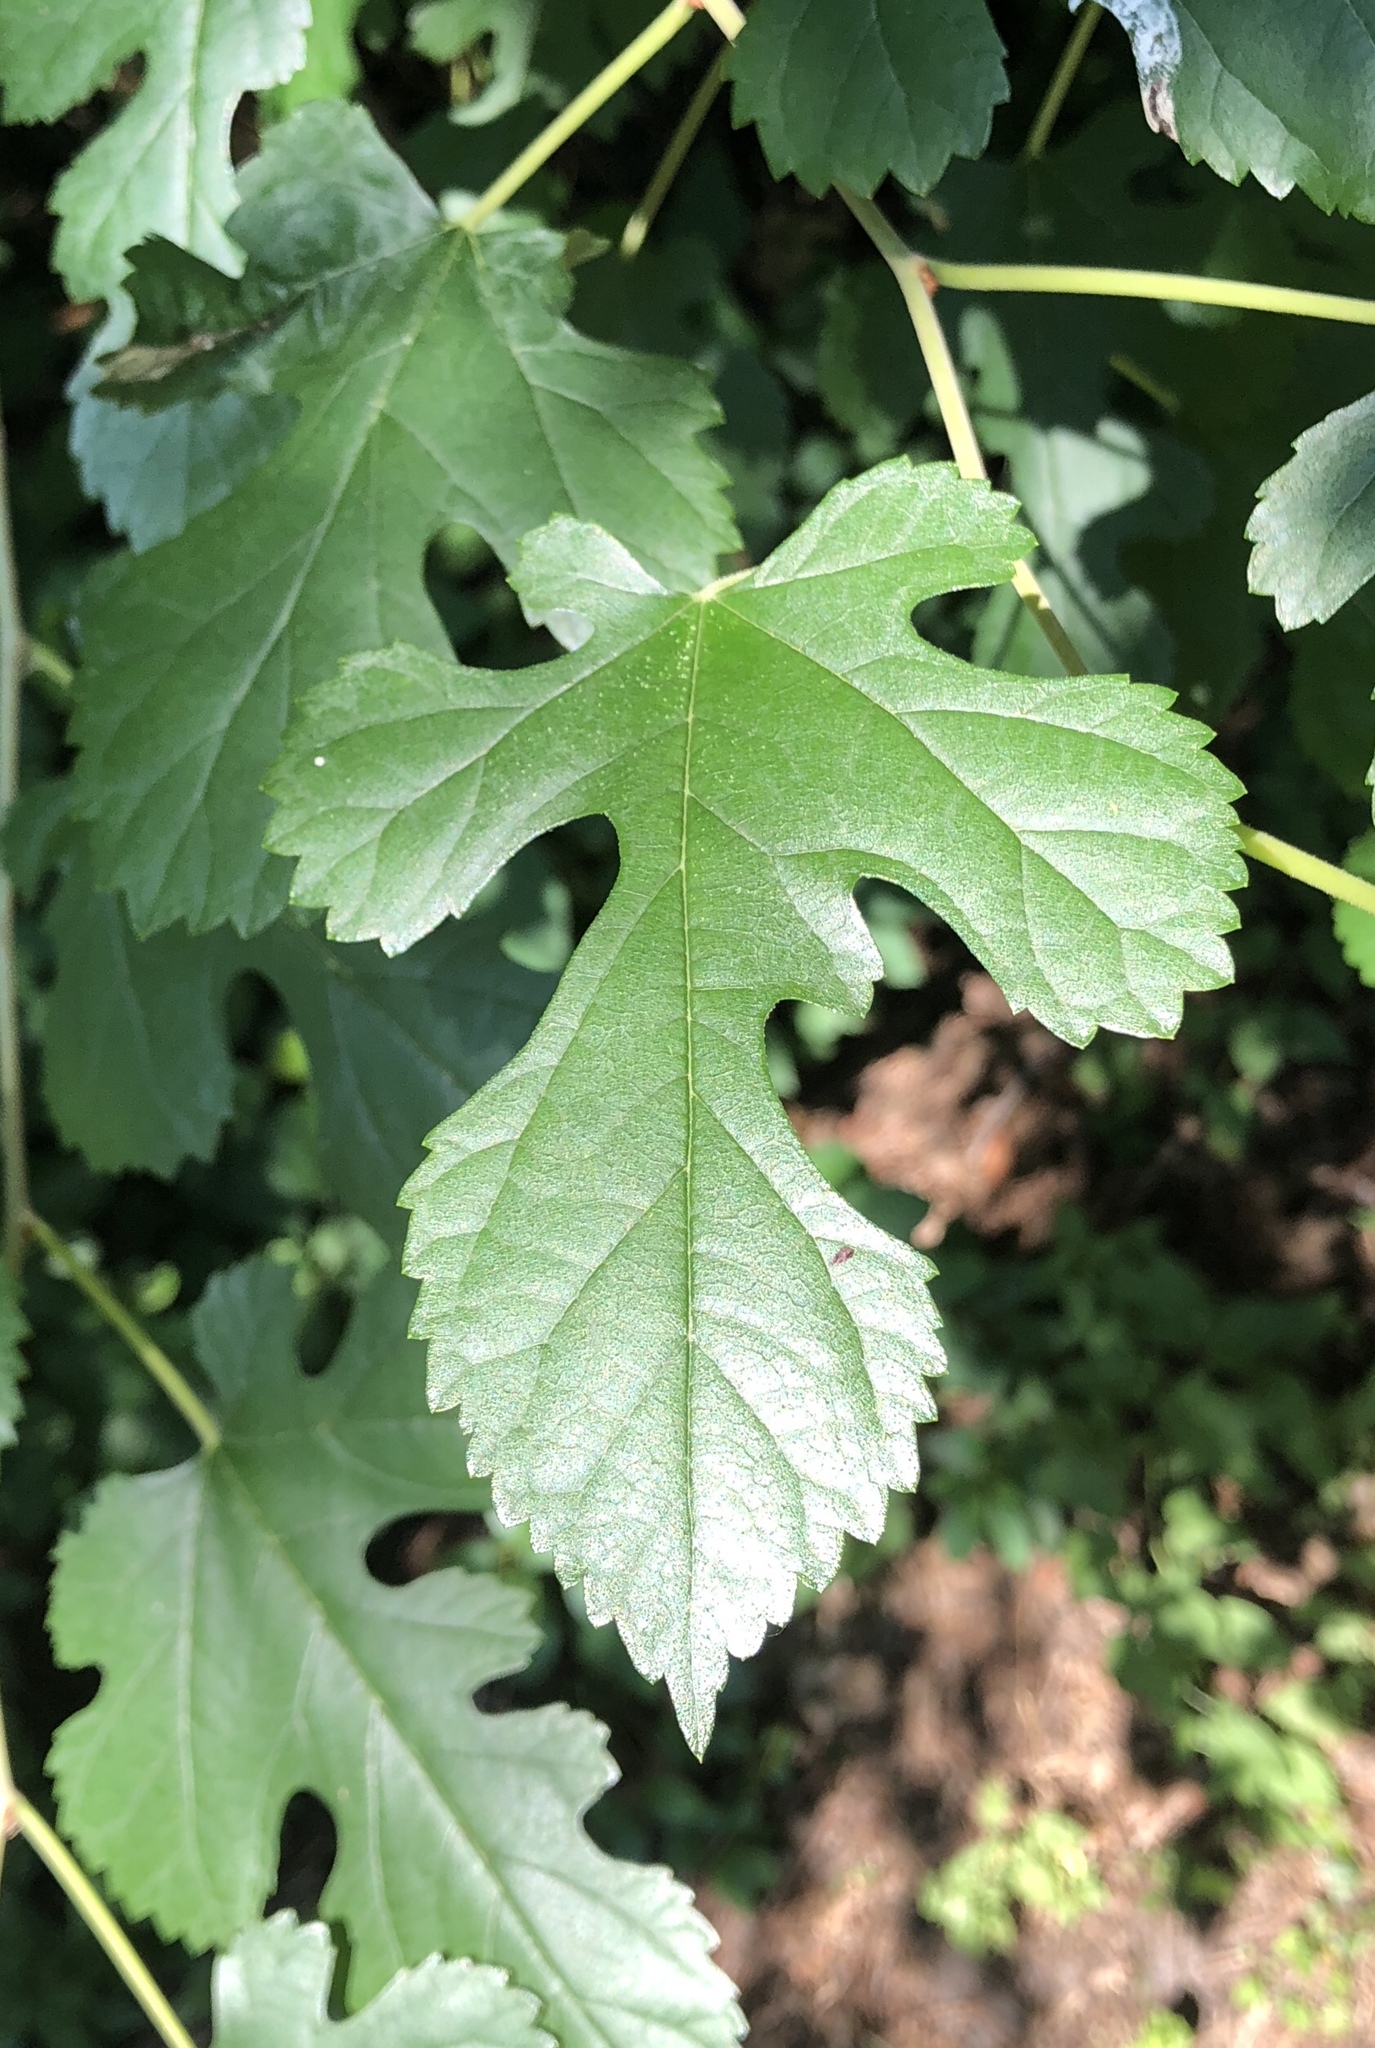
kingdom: Plantae
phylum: Tracheophyta
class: Magnoliopsida
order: Rosales
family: Moraceae
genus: Morus
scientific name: Morus alba
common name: White mulberry
